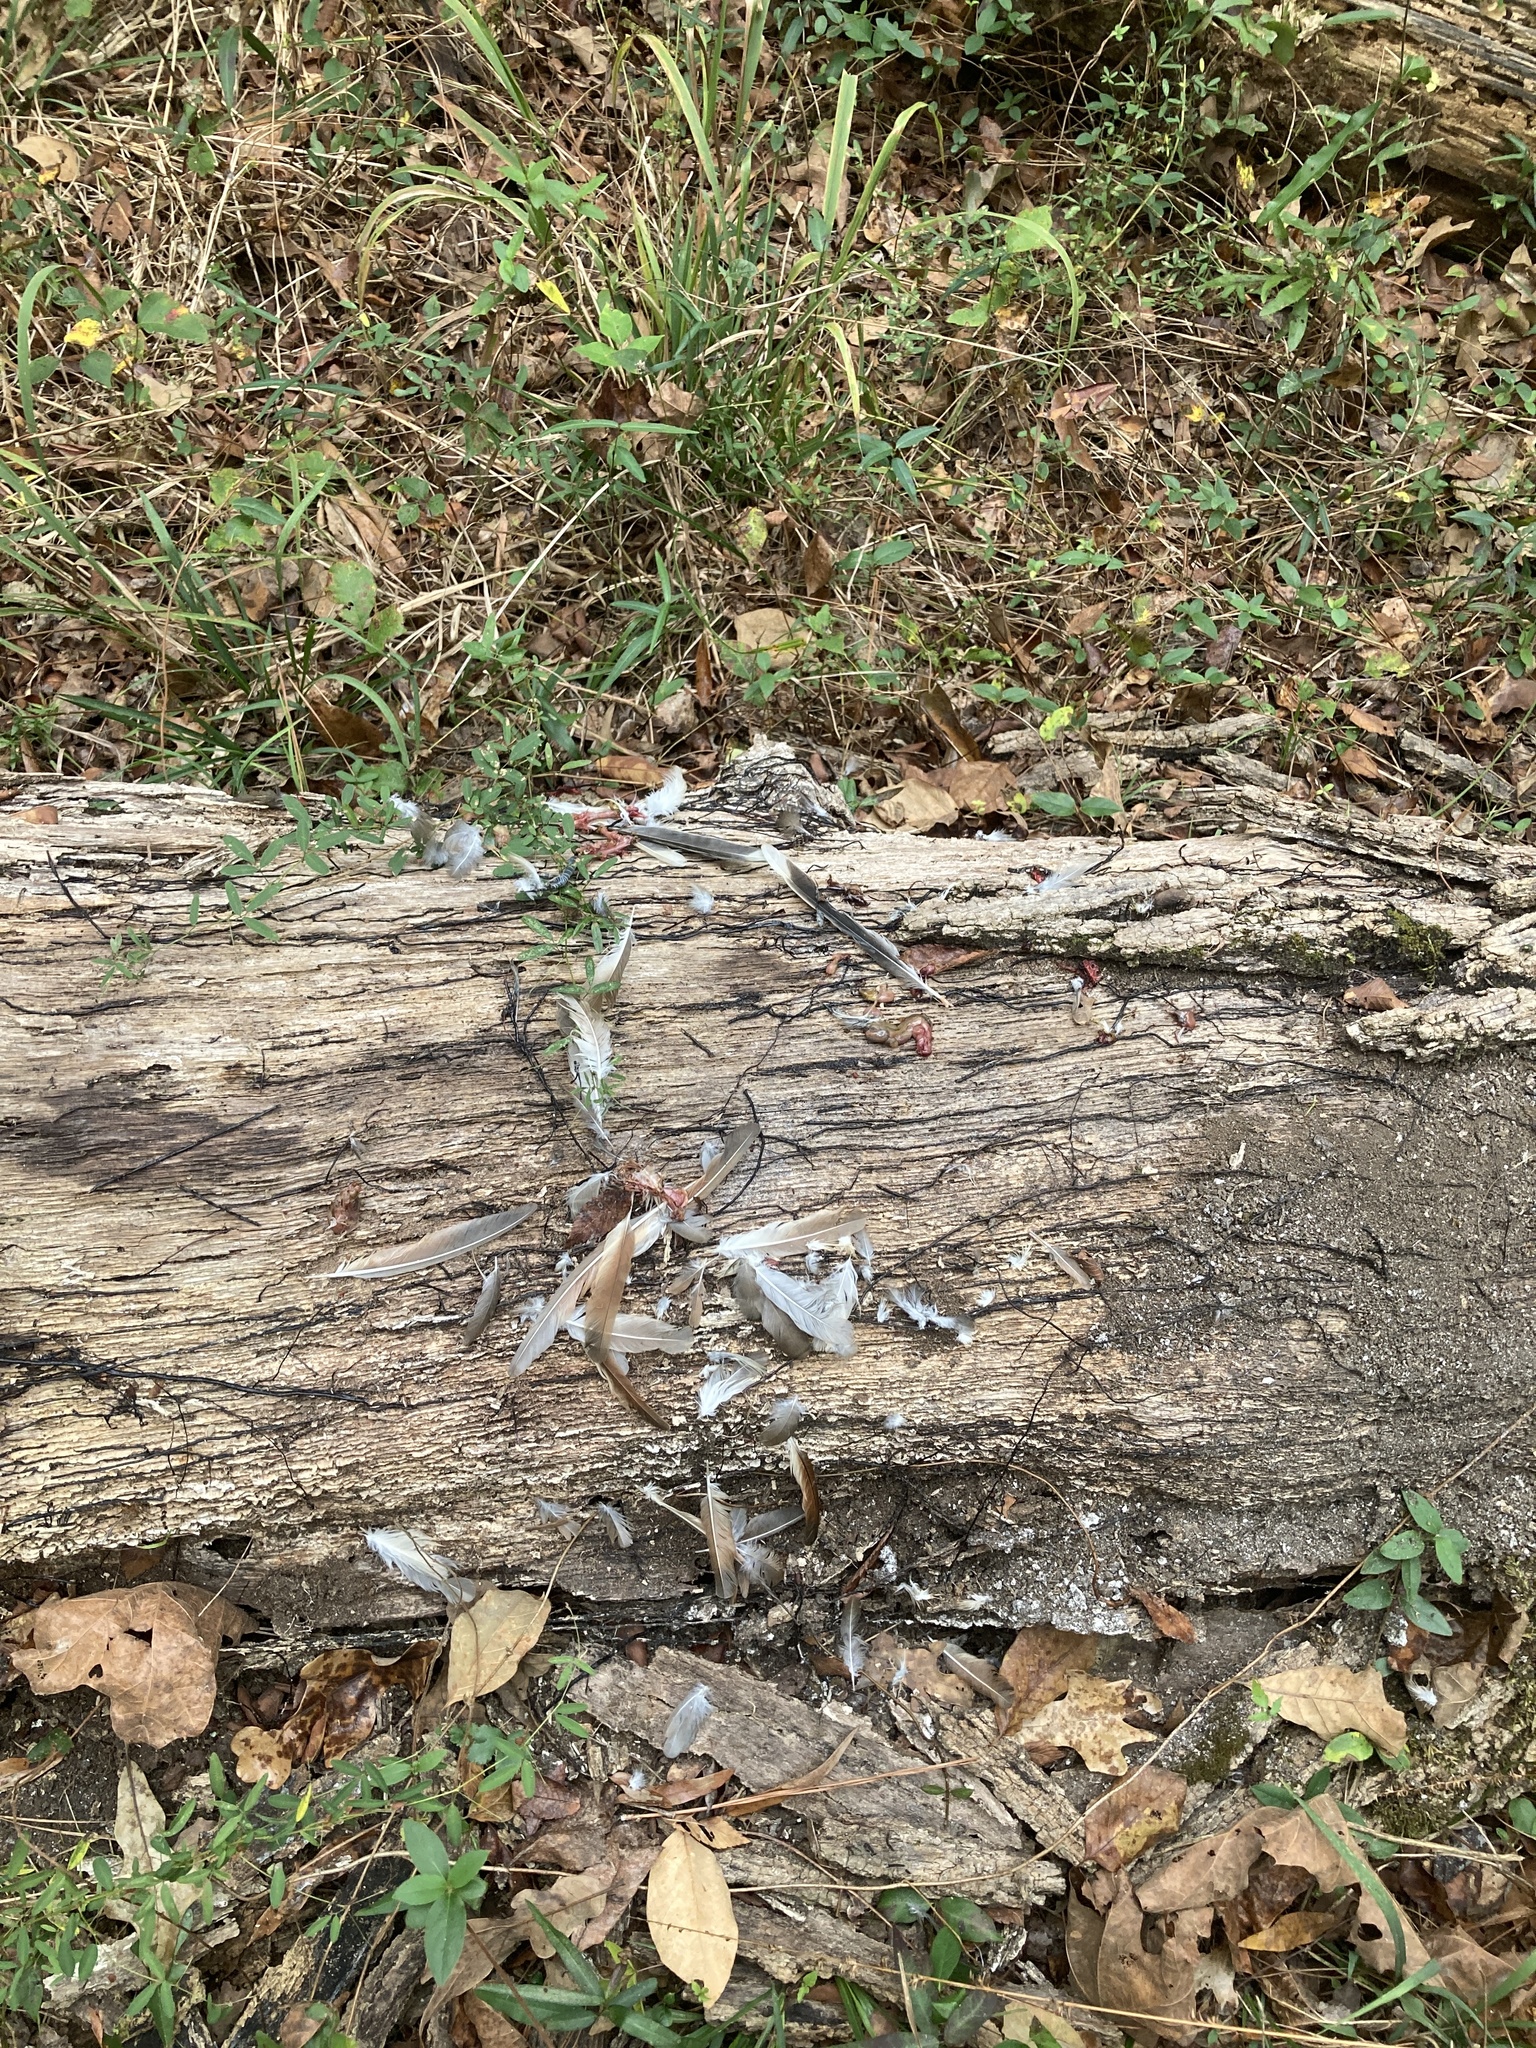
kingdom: Animalia
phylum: Chordata
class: Aves
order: Cuculiformes
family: Cuculidae
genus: Coccyzus
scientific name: Coccyzus americanus
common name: Yellow-billed cuckoo
